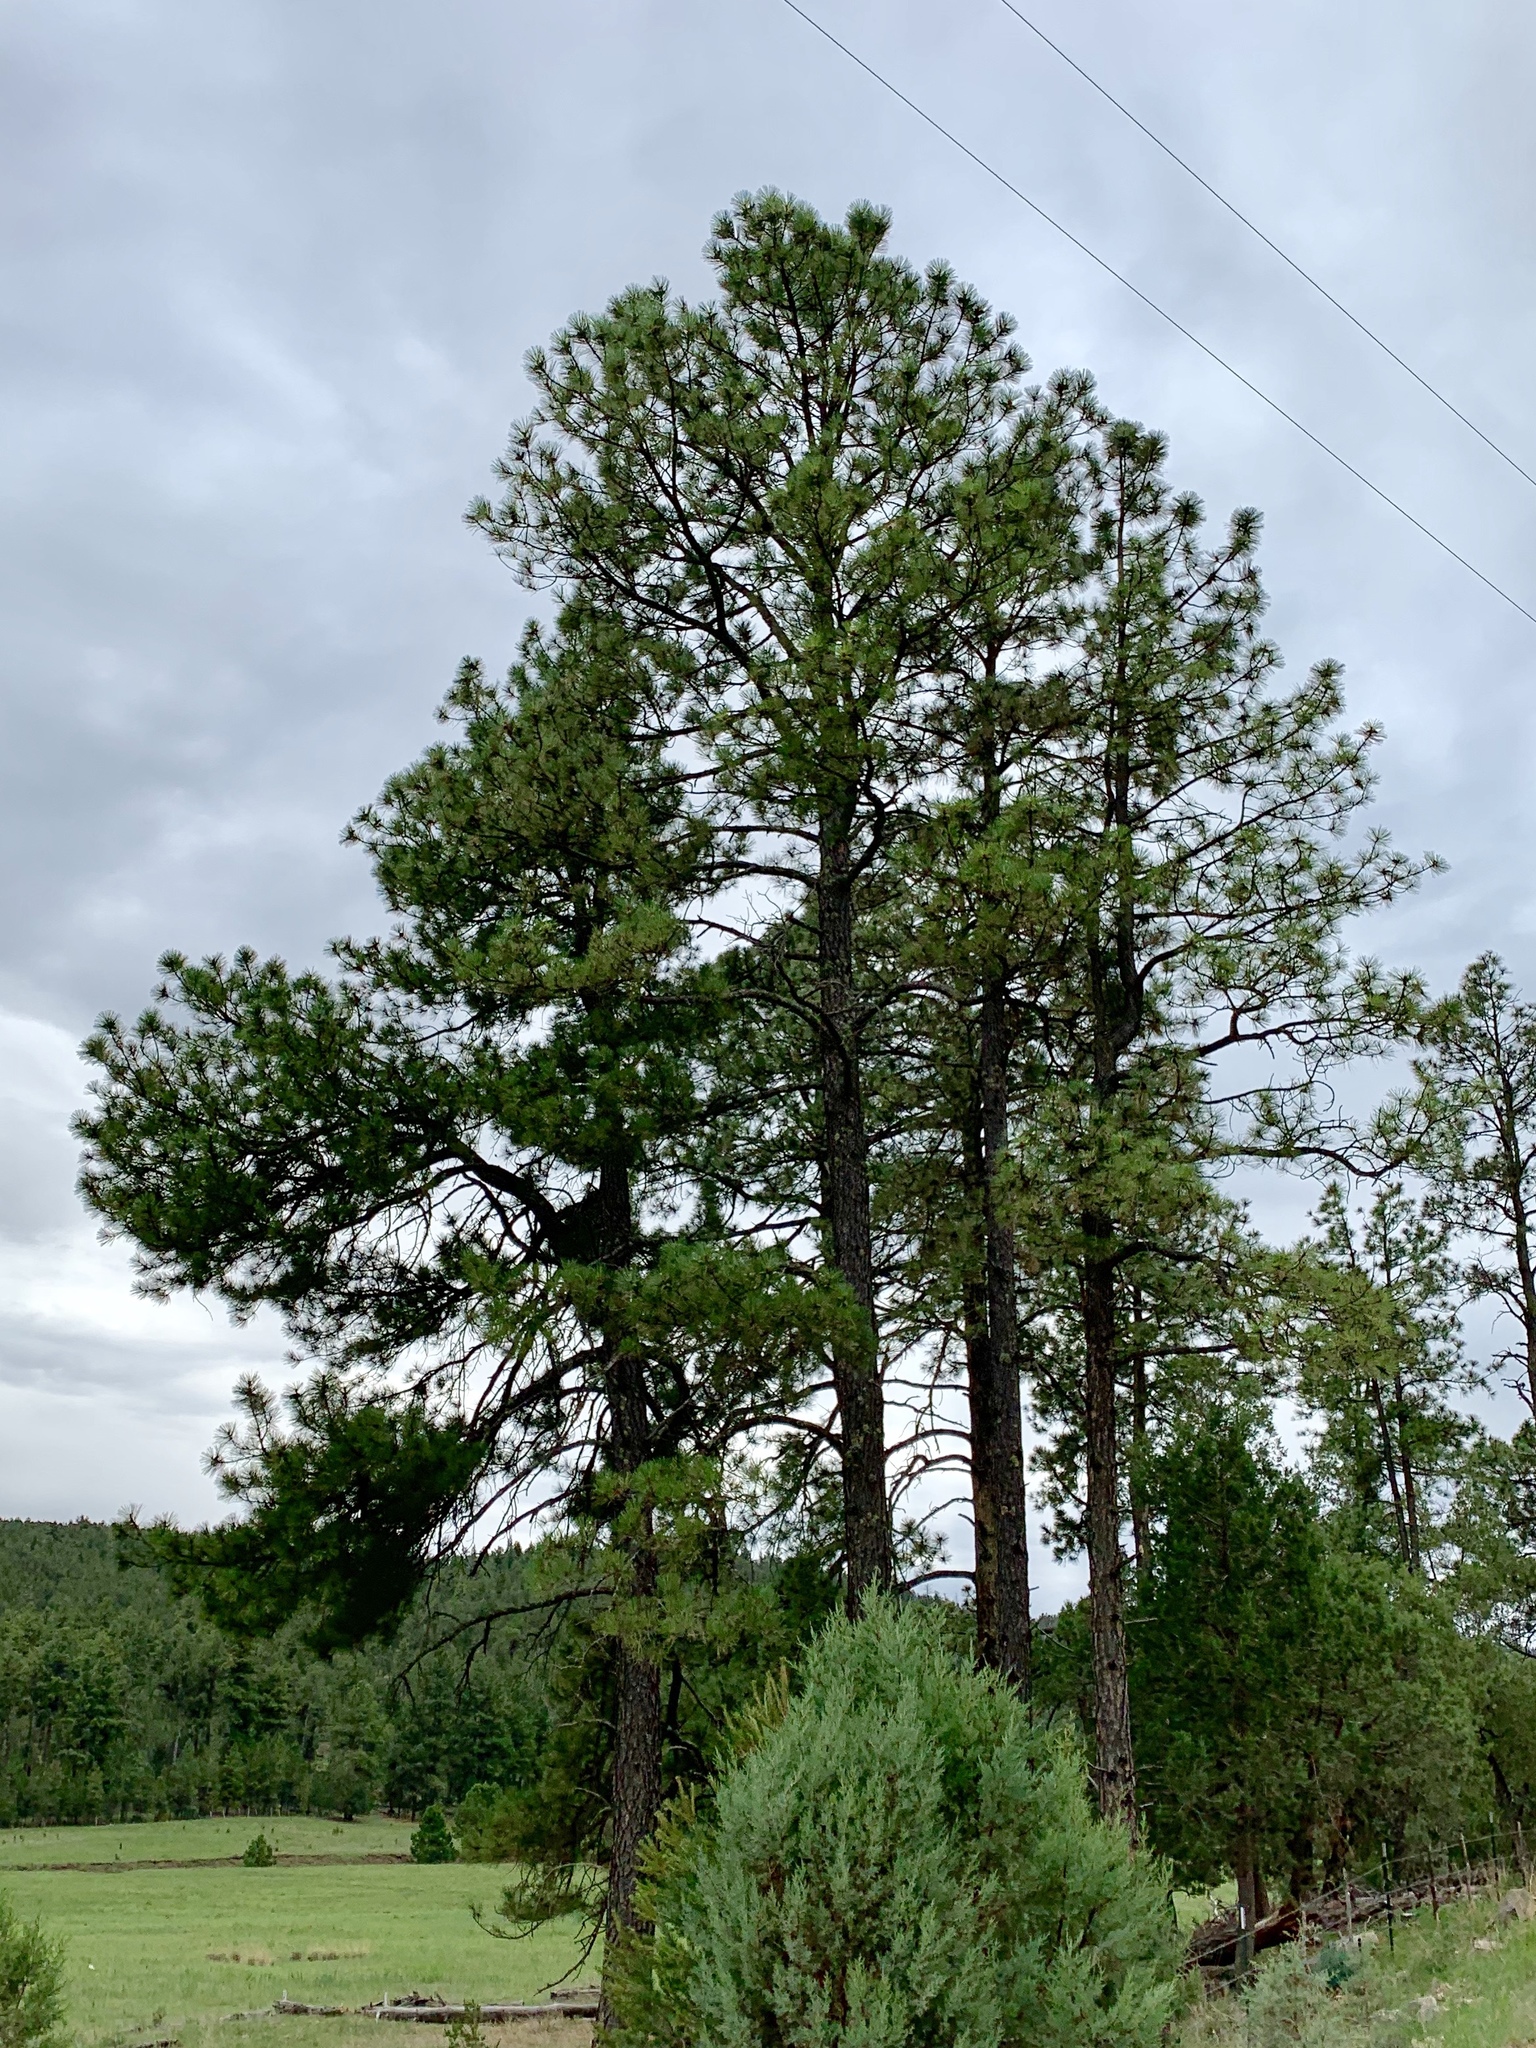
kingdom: Plantae
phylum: Tracheophyta
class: Pinopsida
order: Pinales
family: Pinaceae
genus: Pinus
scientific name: Pinus ponderosa
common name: Western yellow-pine
